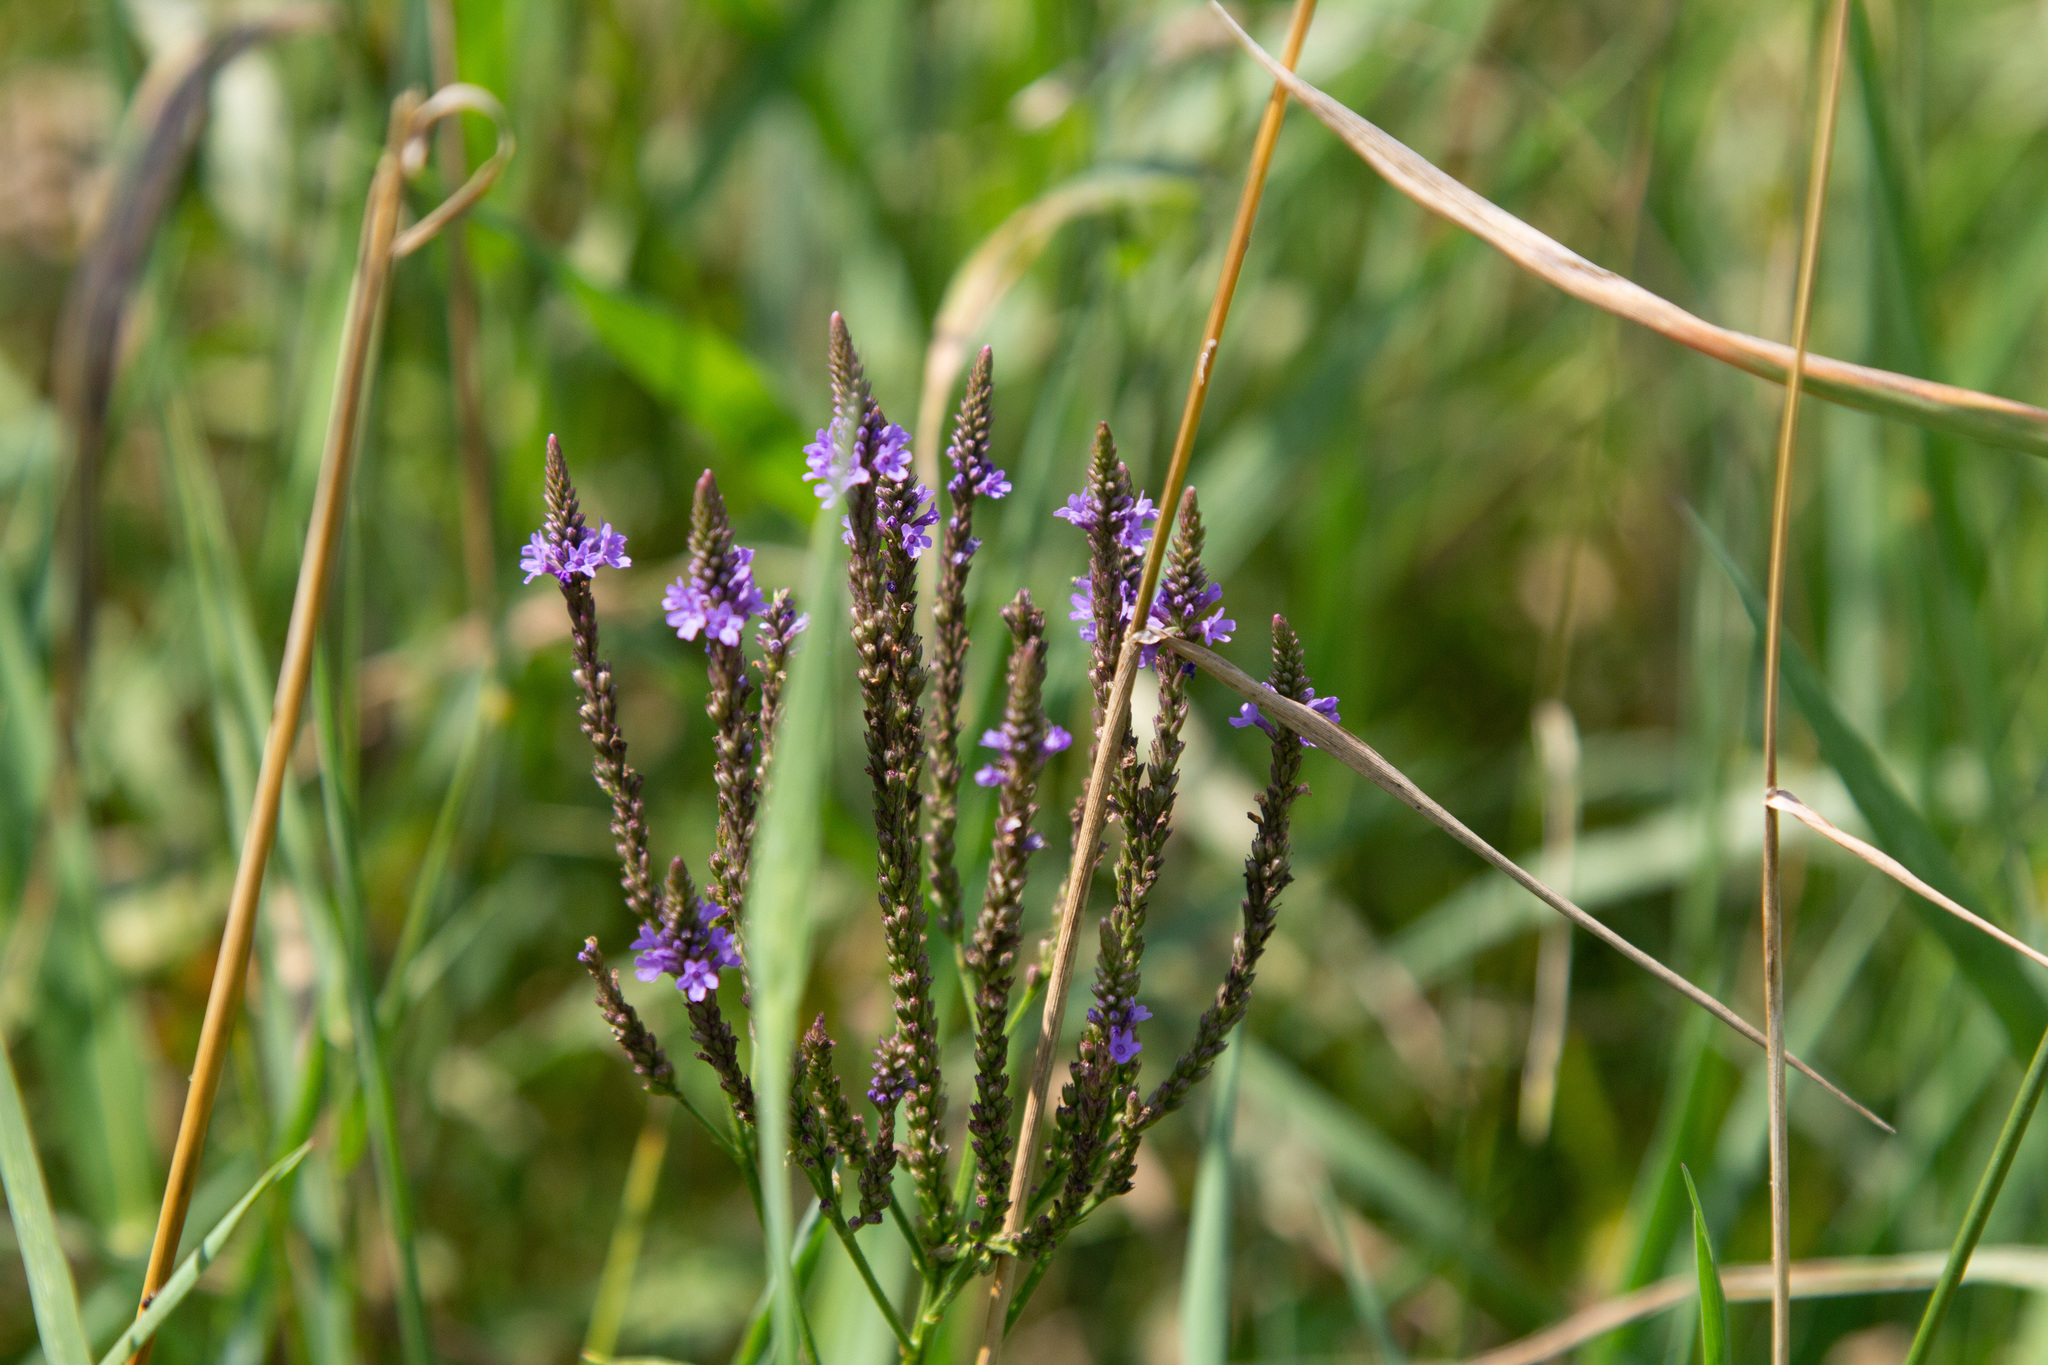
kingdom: Plantae
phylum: Tracheophyta
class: Magnoliopsida
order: Lamiales
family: Verbenaceae
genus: Verbena
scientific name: Verbena hastata
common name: American blue vervain
